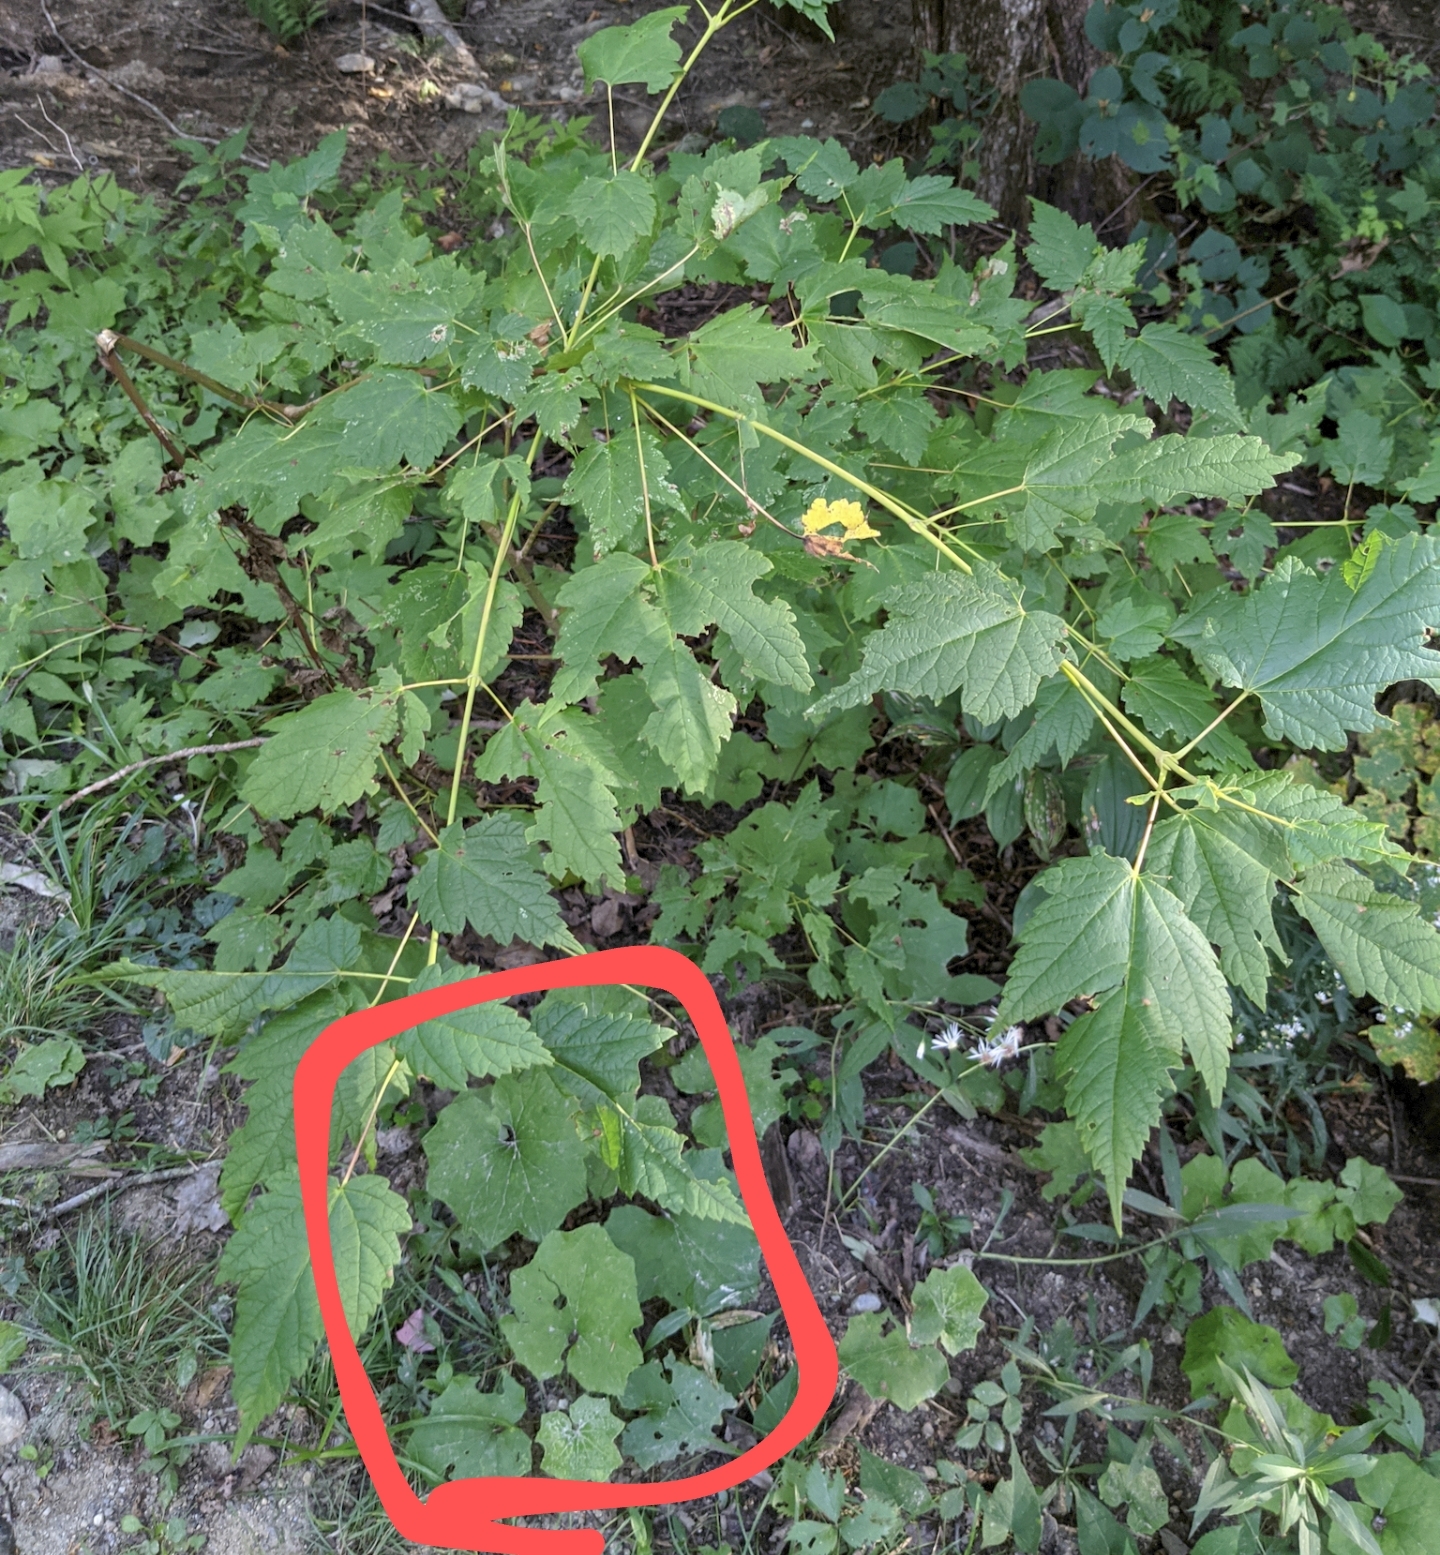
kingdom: Plantae
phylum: Tracheophyta
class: Magnoliopsida
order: Asterales
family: Asteraceae
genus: Tussilago
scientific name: Tussilago farfara
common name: Coltsfoot
